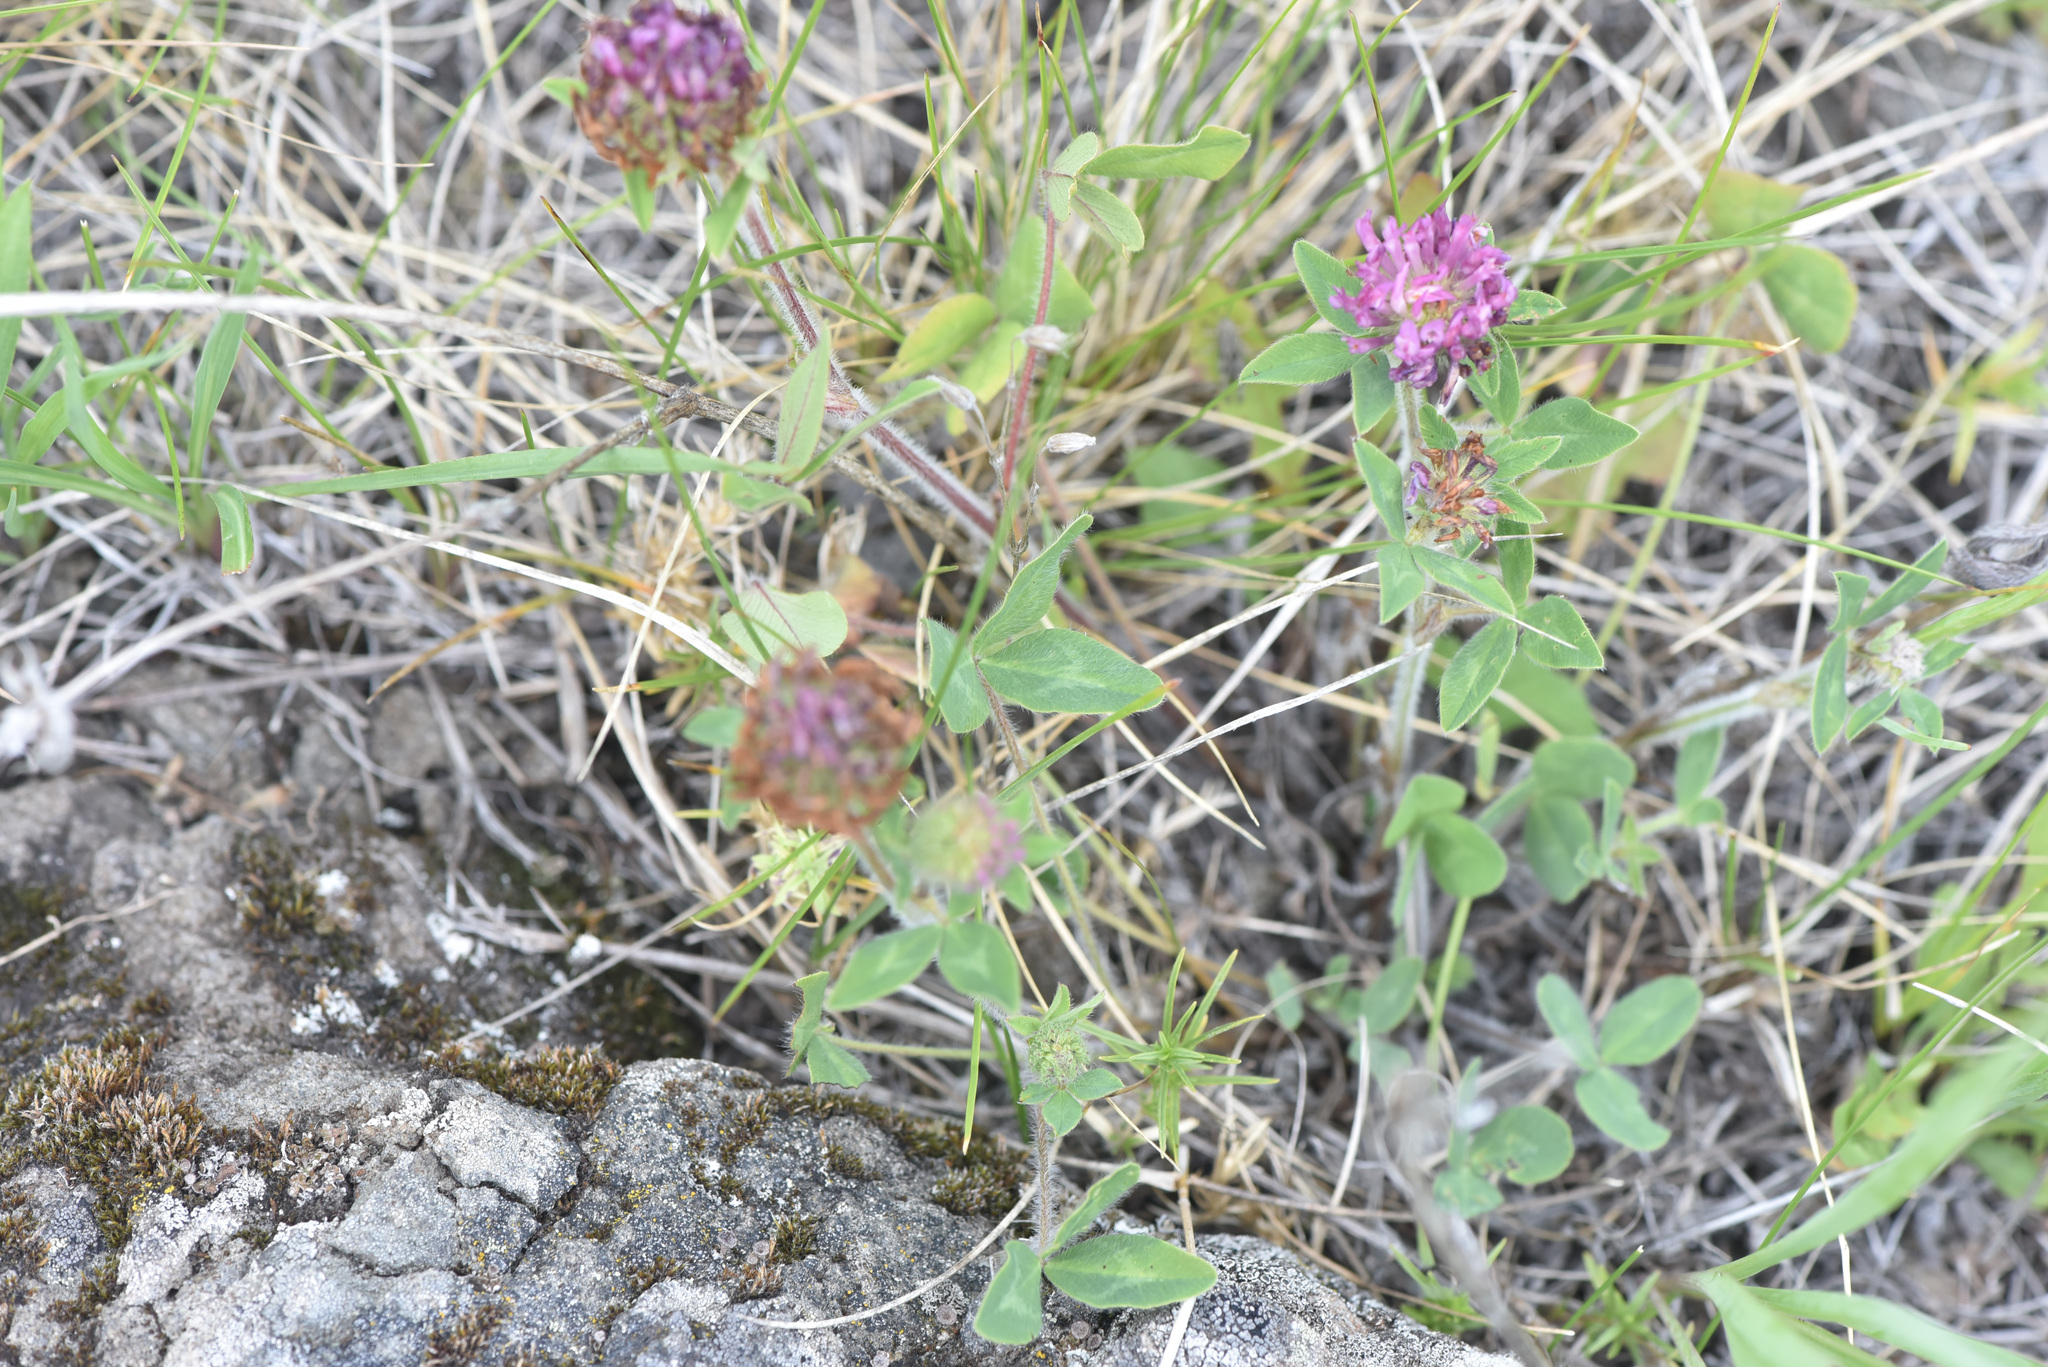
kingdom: Plantae
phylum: Tracheophyta
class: Magnoliopsida
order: Fabales
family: Fabaceae
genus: Trifolium
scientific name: Trifolium pratense
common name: Red clover
